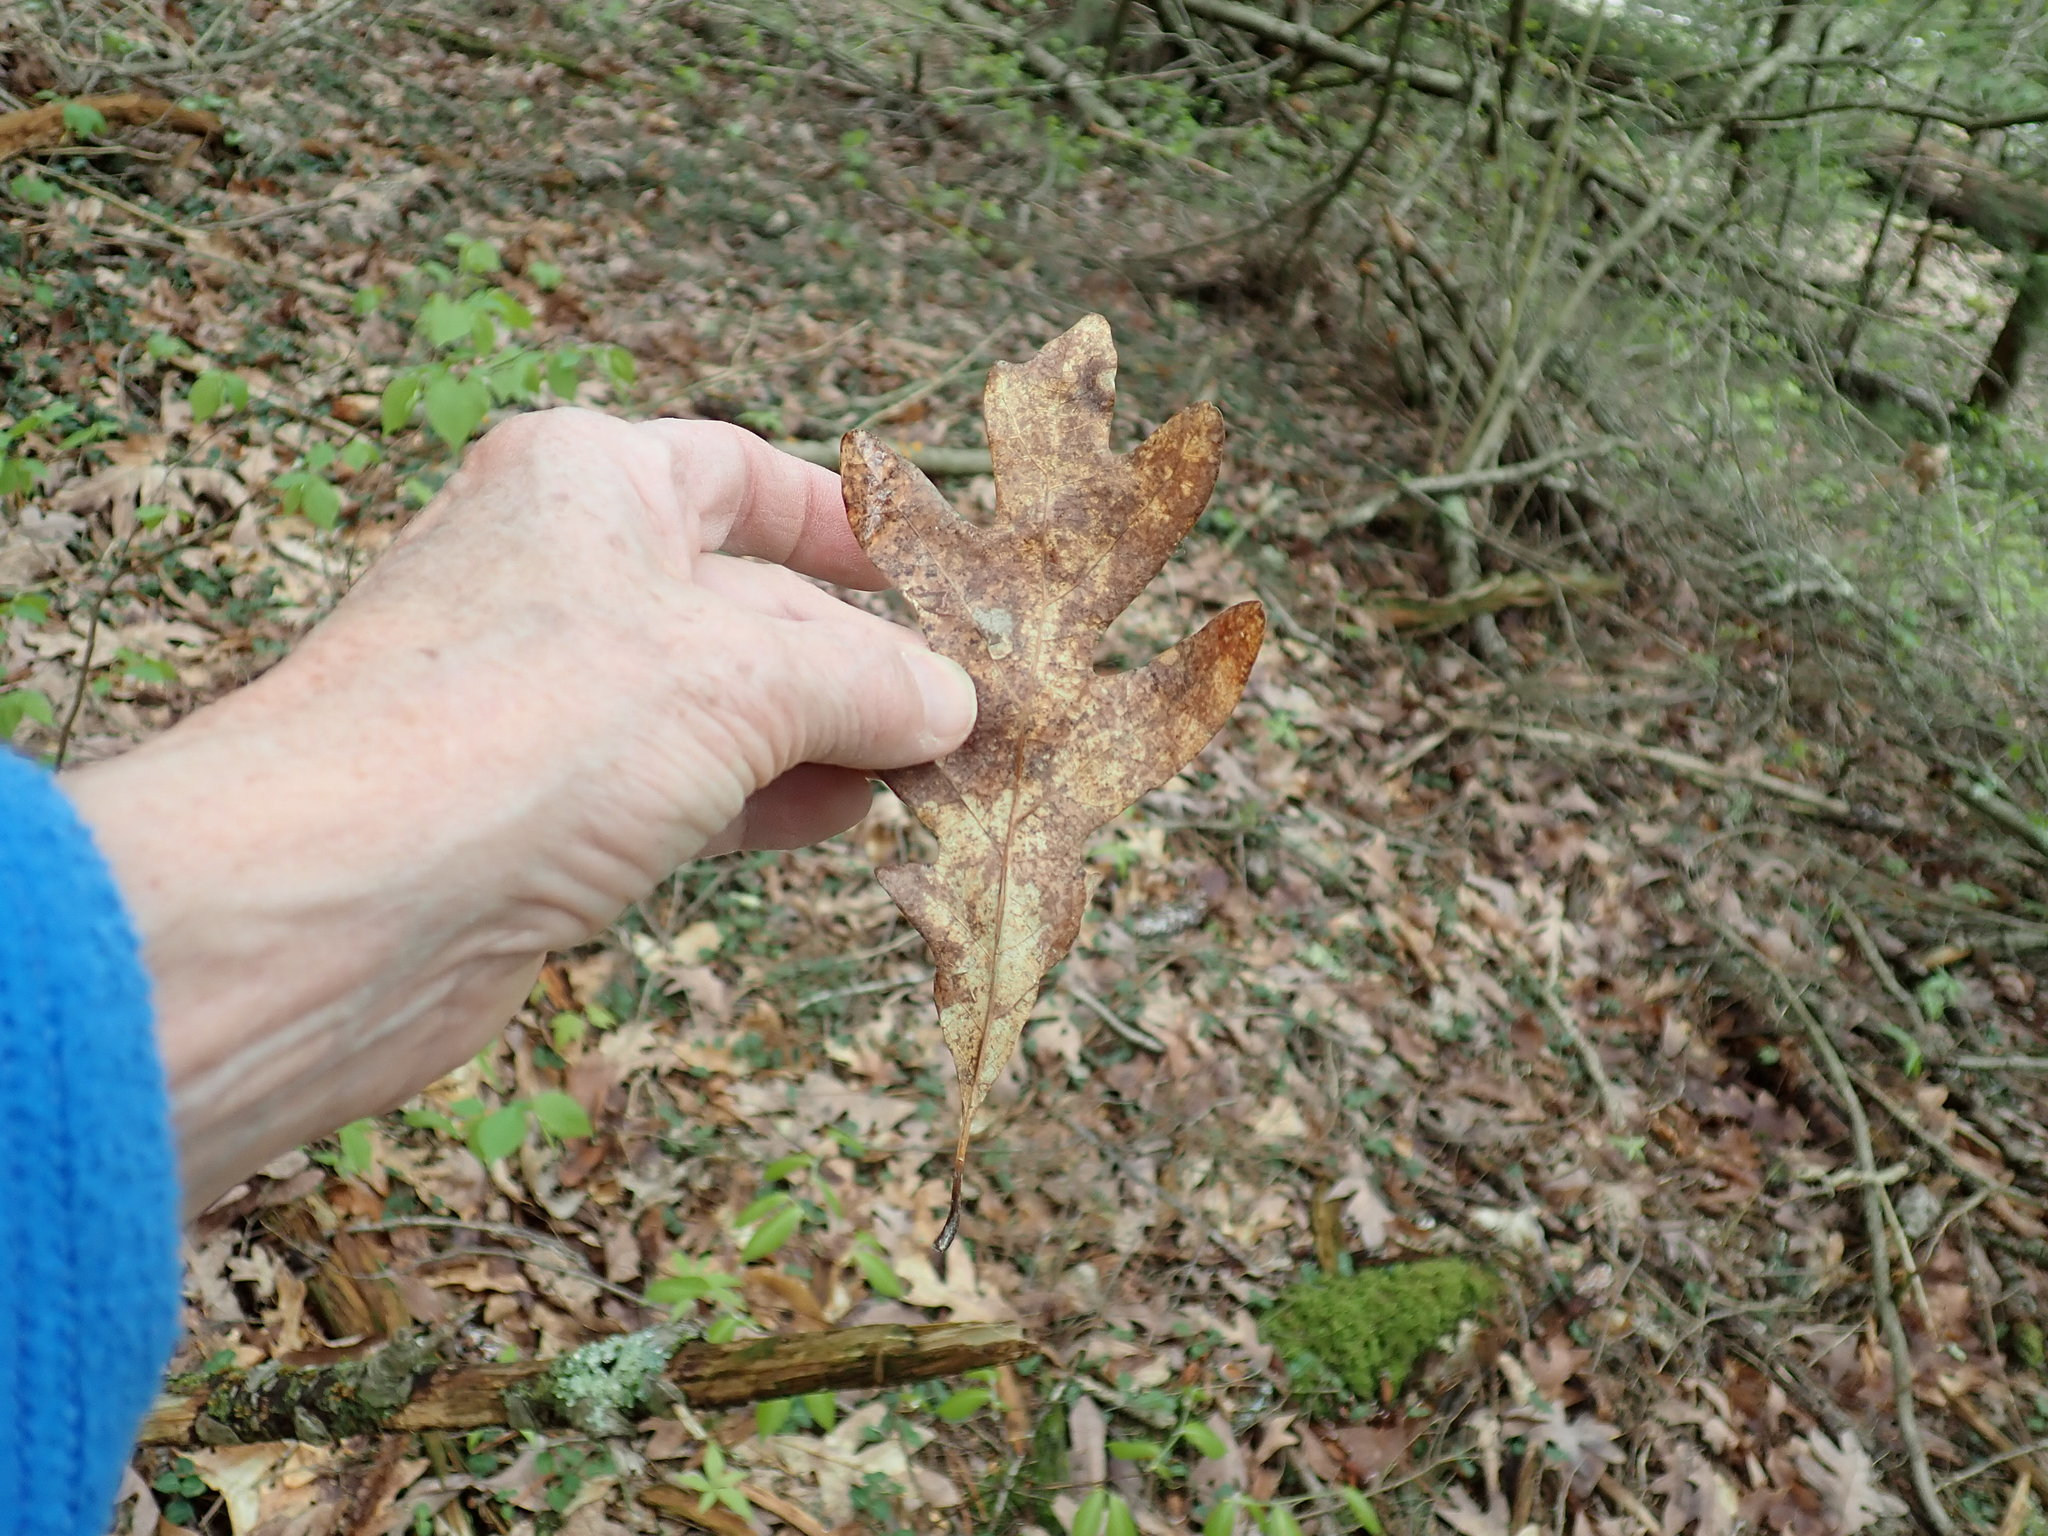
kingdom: Plantae
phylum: Tracheophyta
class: Magnoliopsida
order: Fagales
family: Fagaceae
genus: Quercus
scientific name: Quercus alba
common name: White oak
